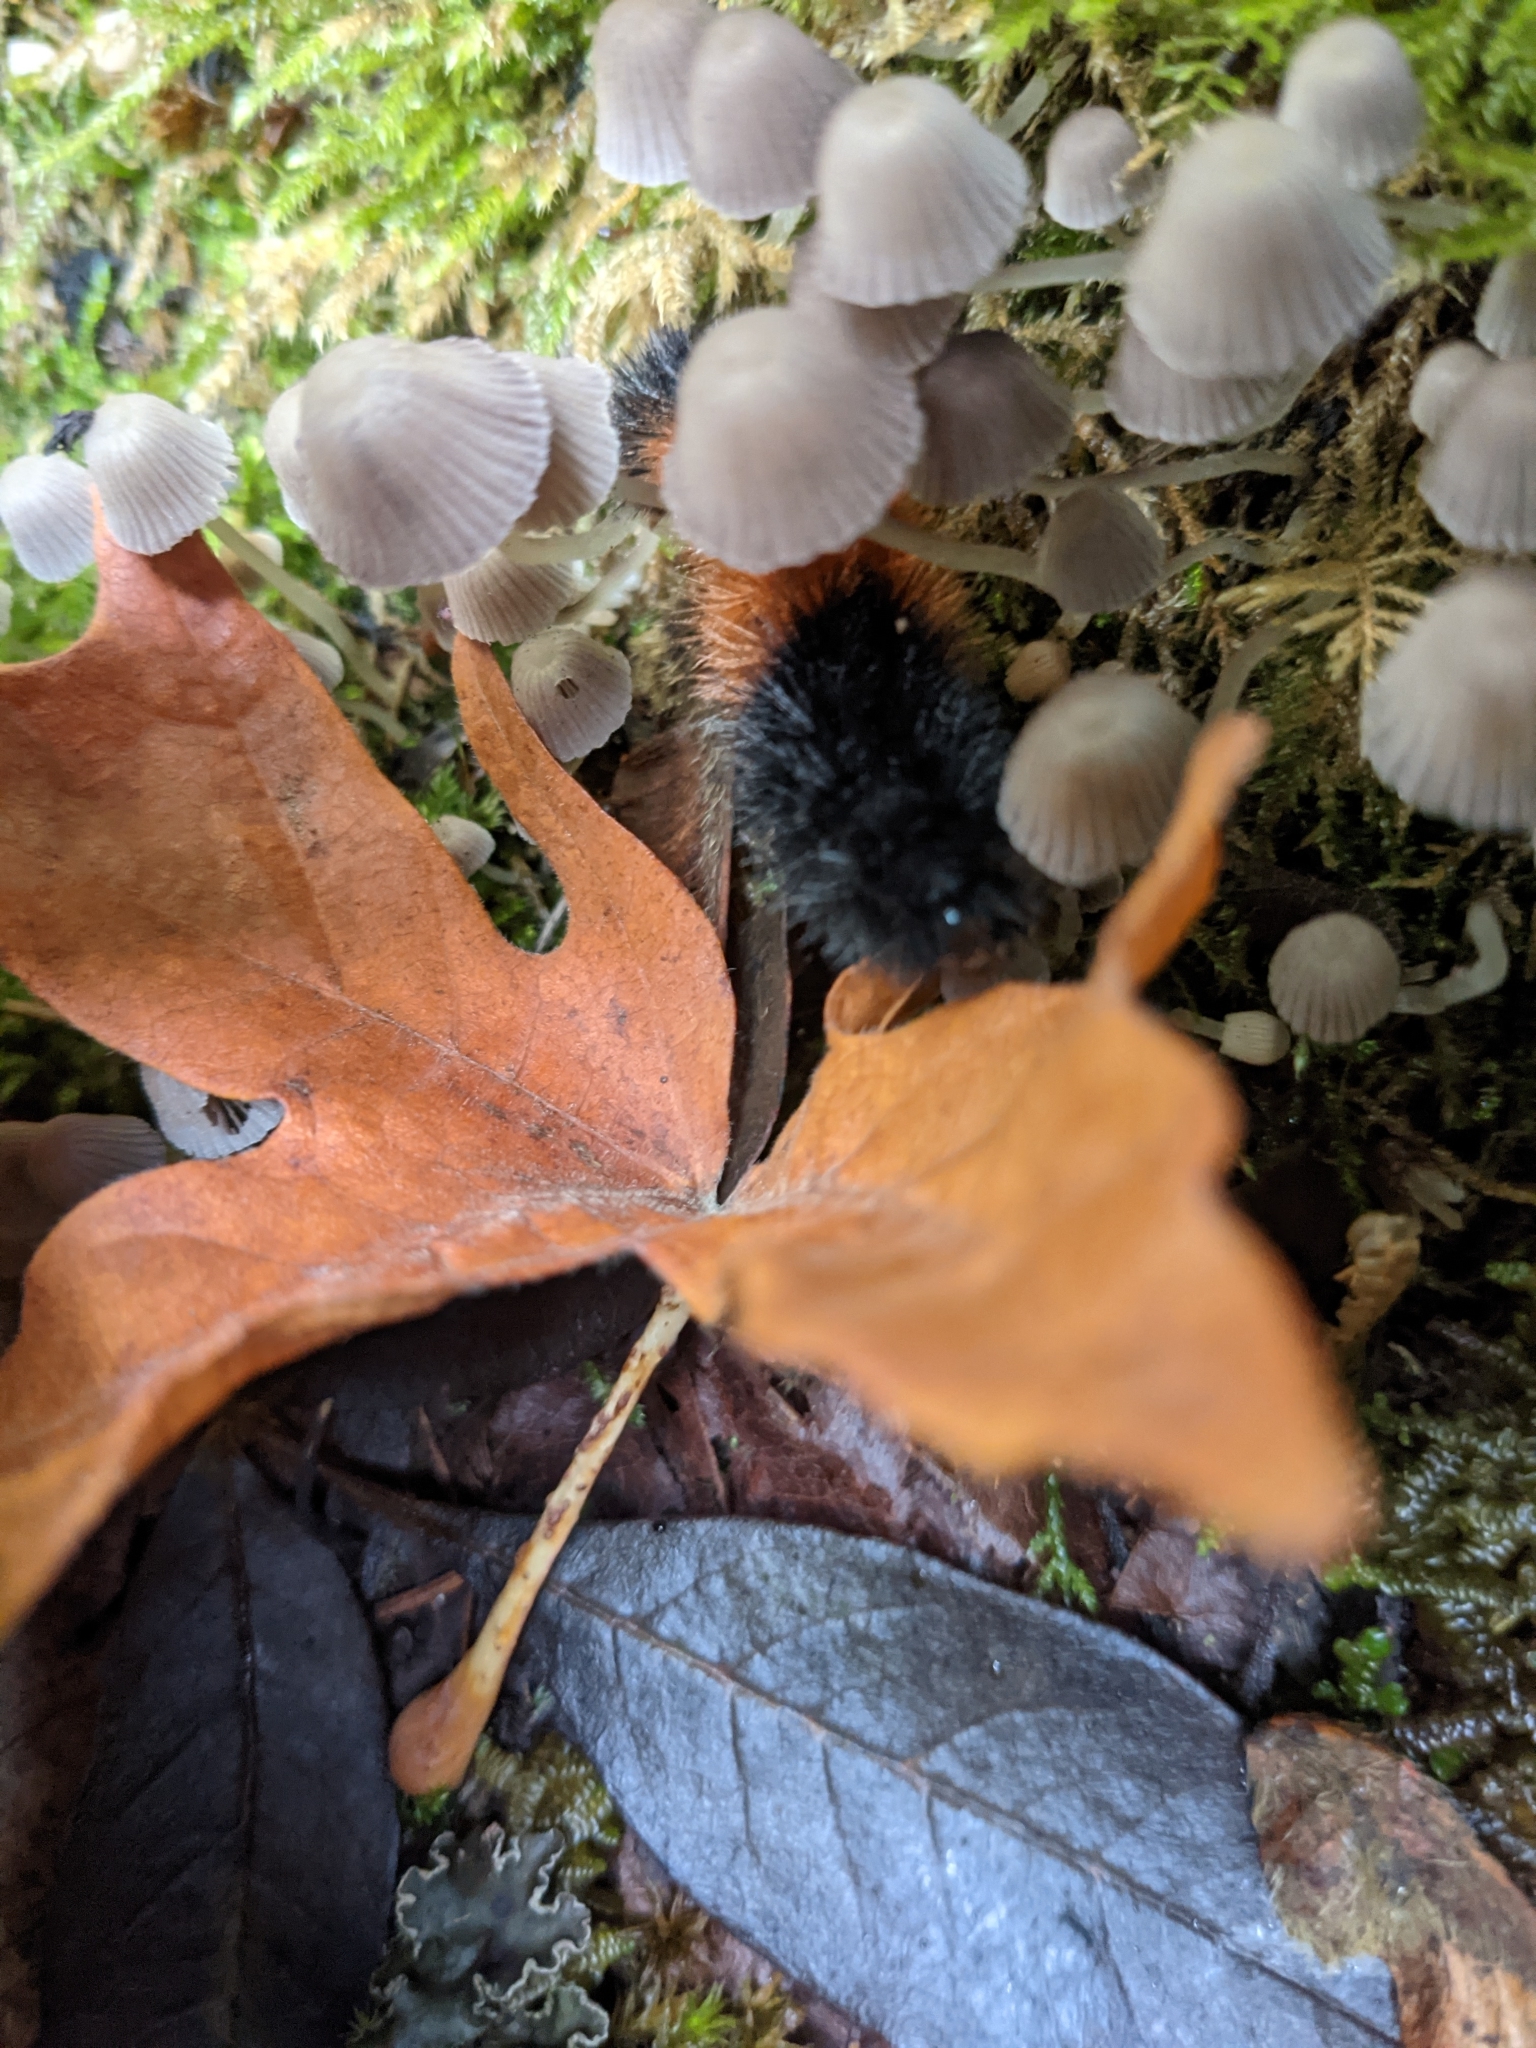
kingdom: Animalia
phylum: Arthropoda
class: Insecta
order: Lepidoptera
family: Erebidae
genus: Pyrrharctia
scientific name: Pyrrharctia isabella
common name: Isabella tiger moth
